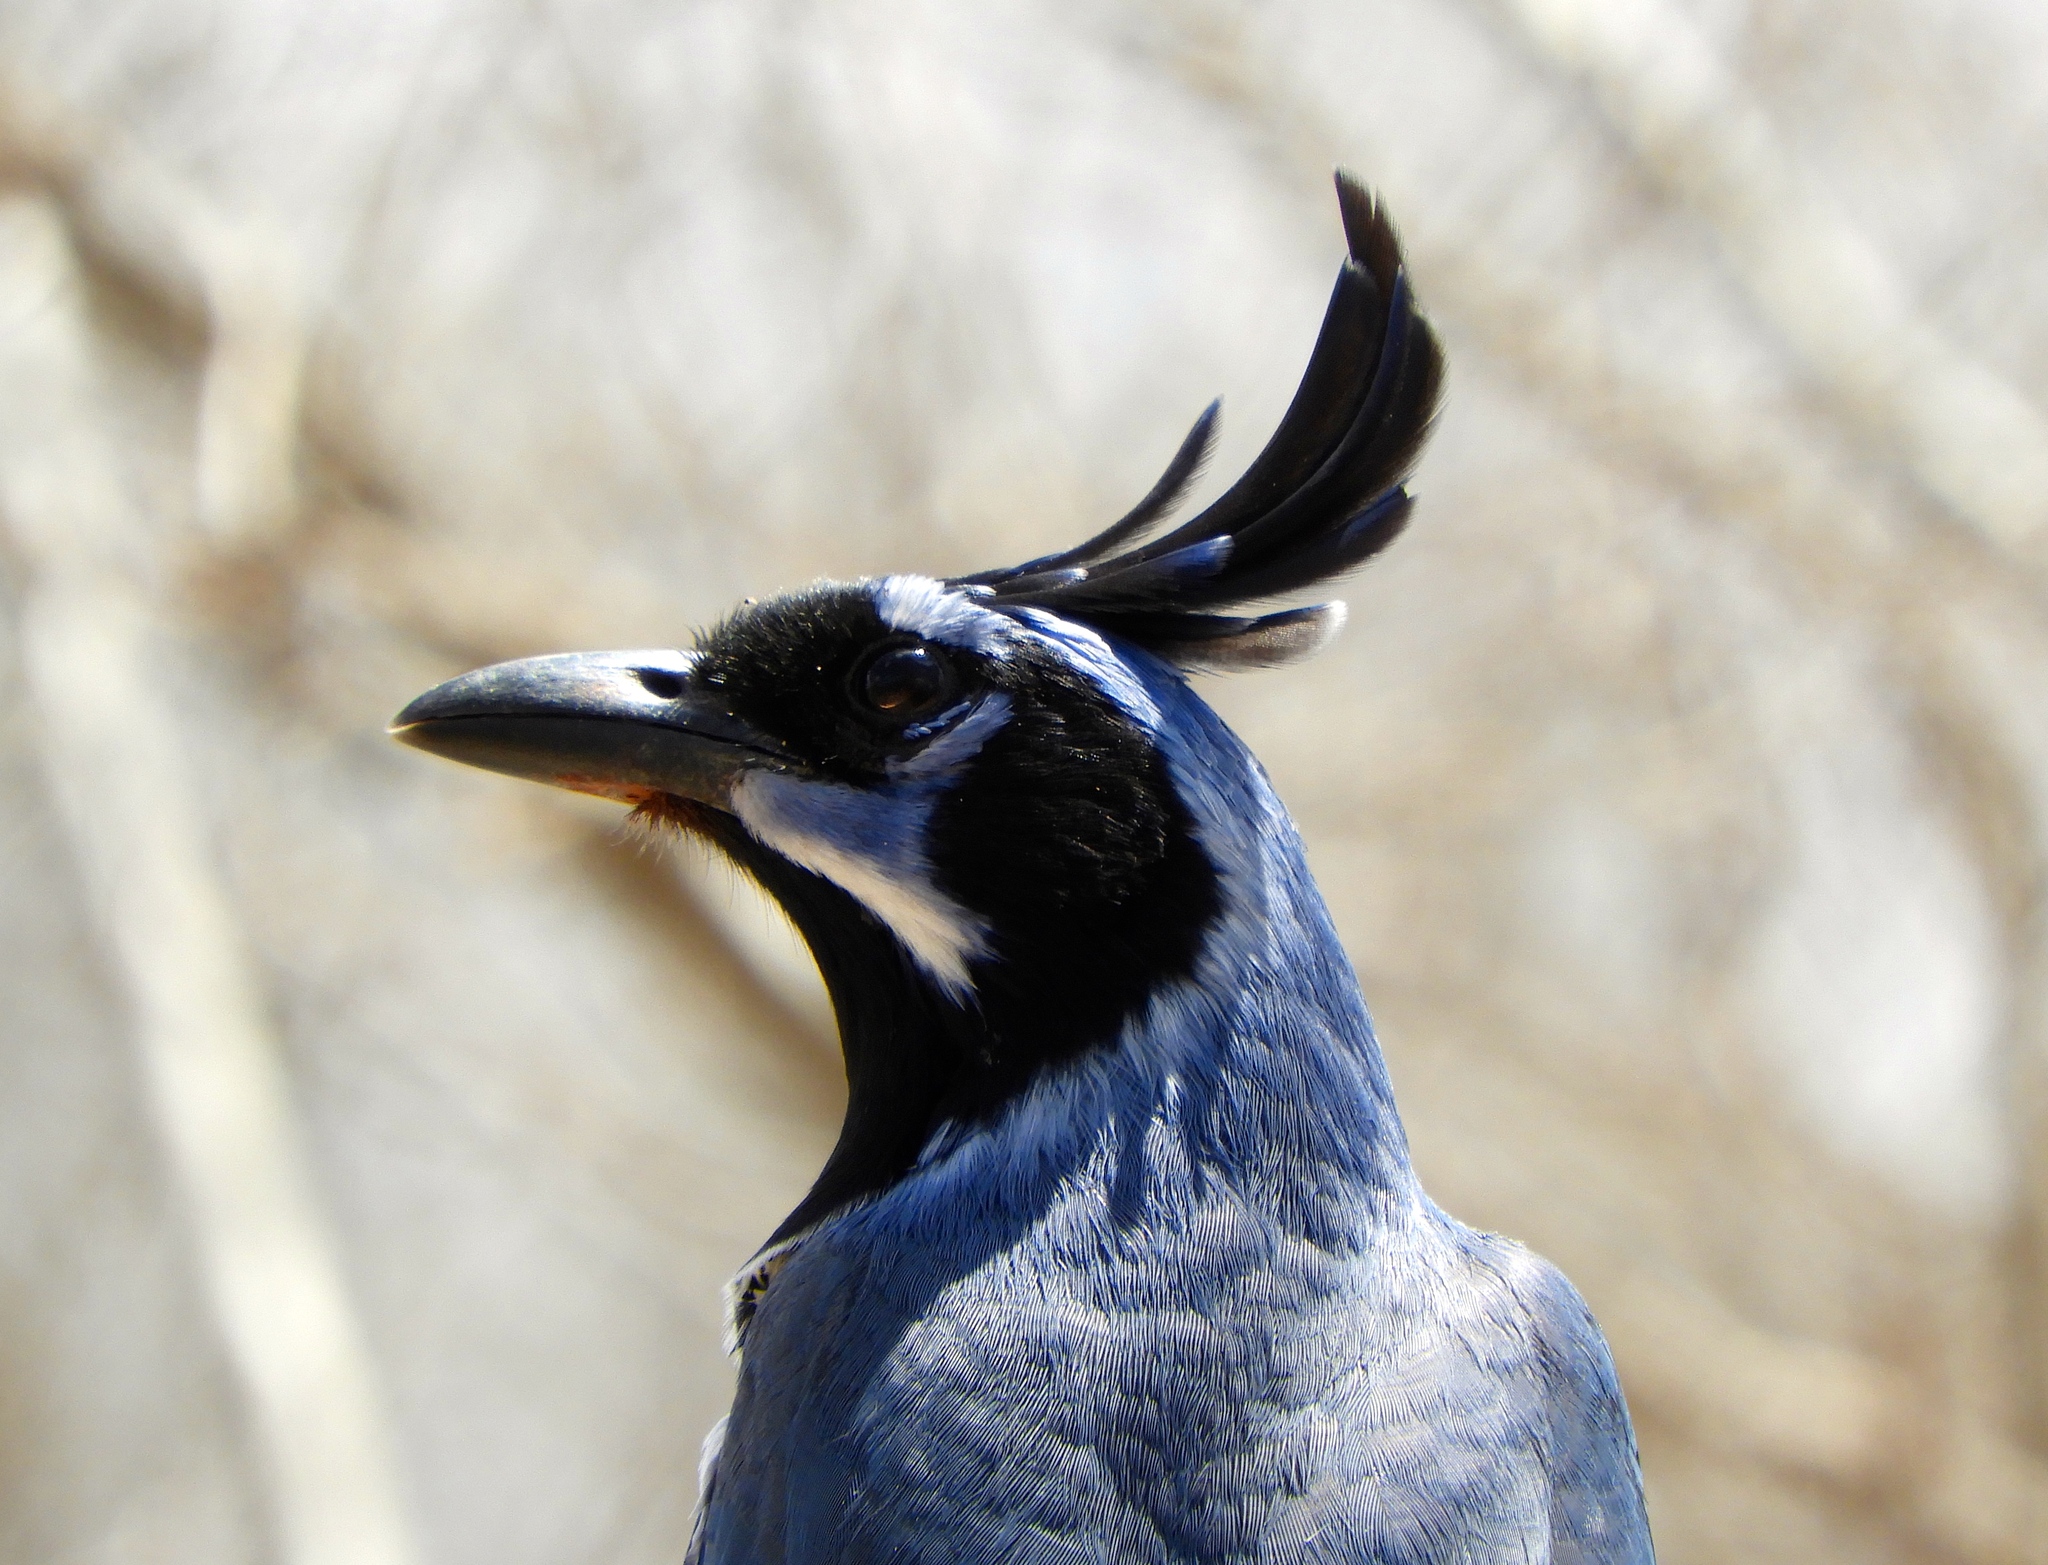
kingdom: Animalia
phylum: Chordata
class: Aves
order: Passeriformes
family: Corvidae
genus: Calocitta
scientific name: Calocitta colliei
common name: Black-throated magpie-jay
